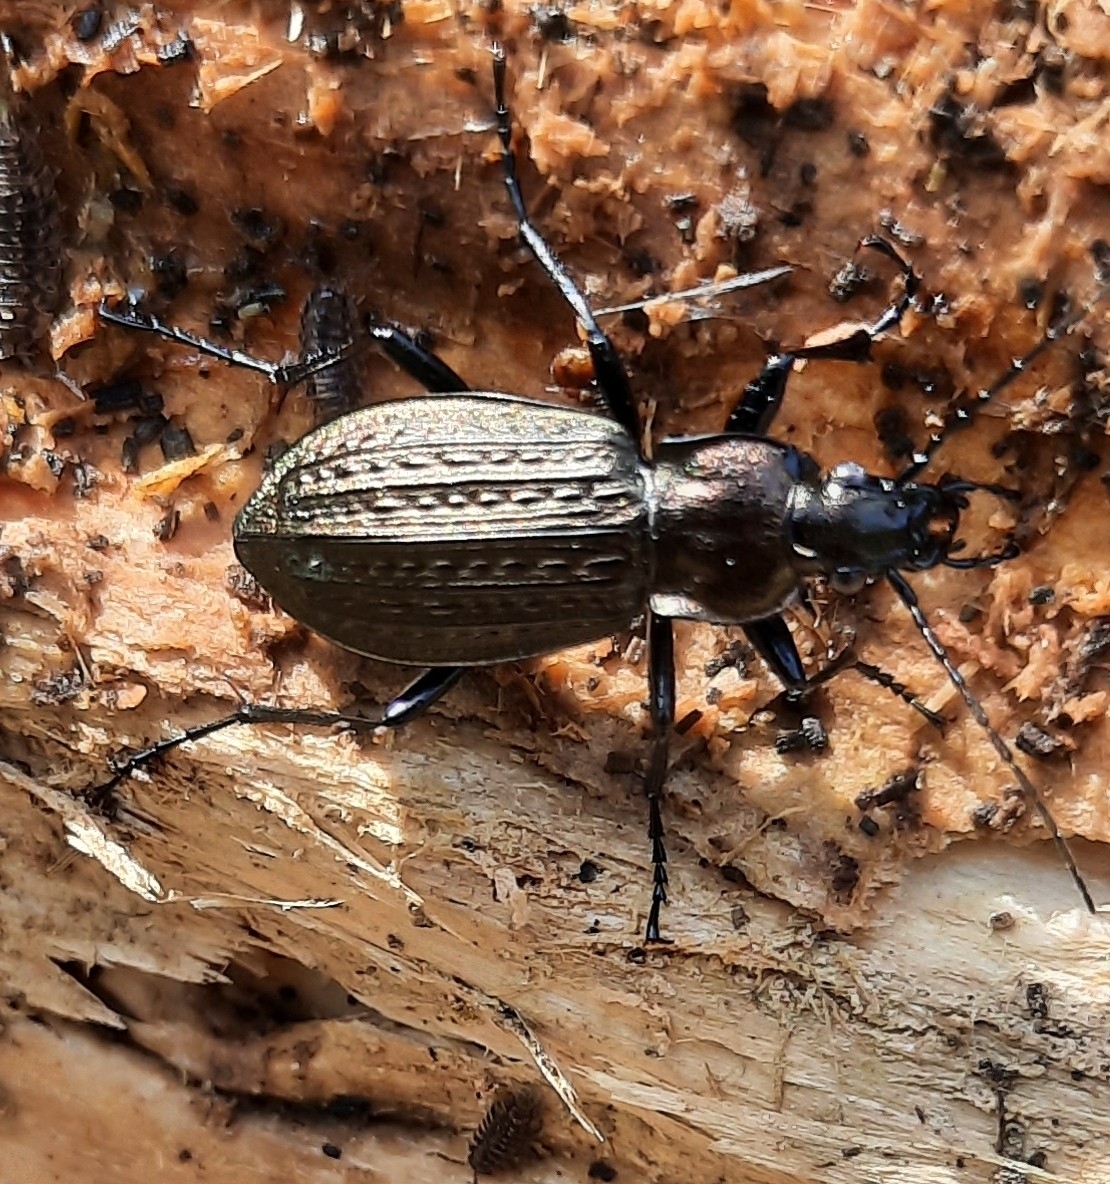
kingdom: Animalia
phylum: Arthropoda
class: Insecta
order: Coleoptera
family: Carabidae
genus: Carabus
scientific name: Carabus granulatus
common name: Granulate ground beetle
